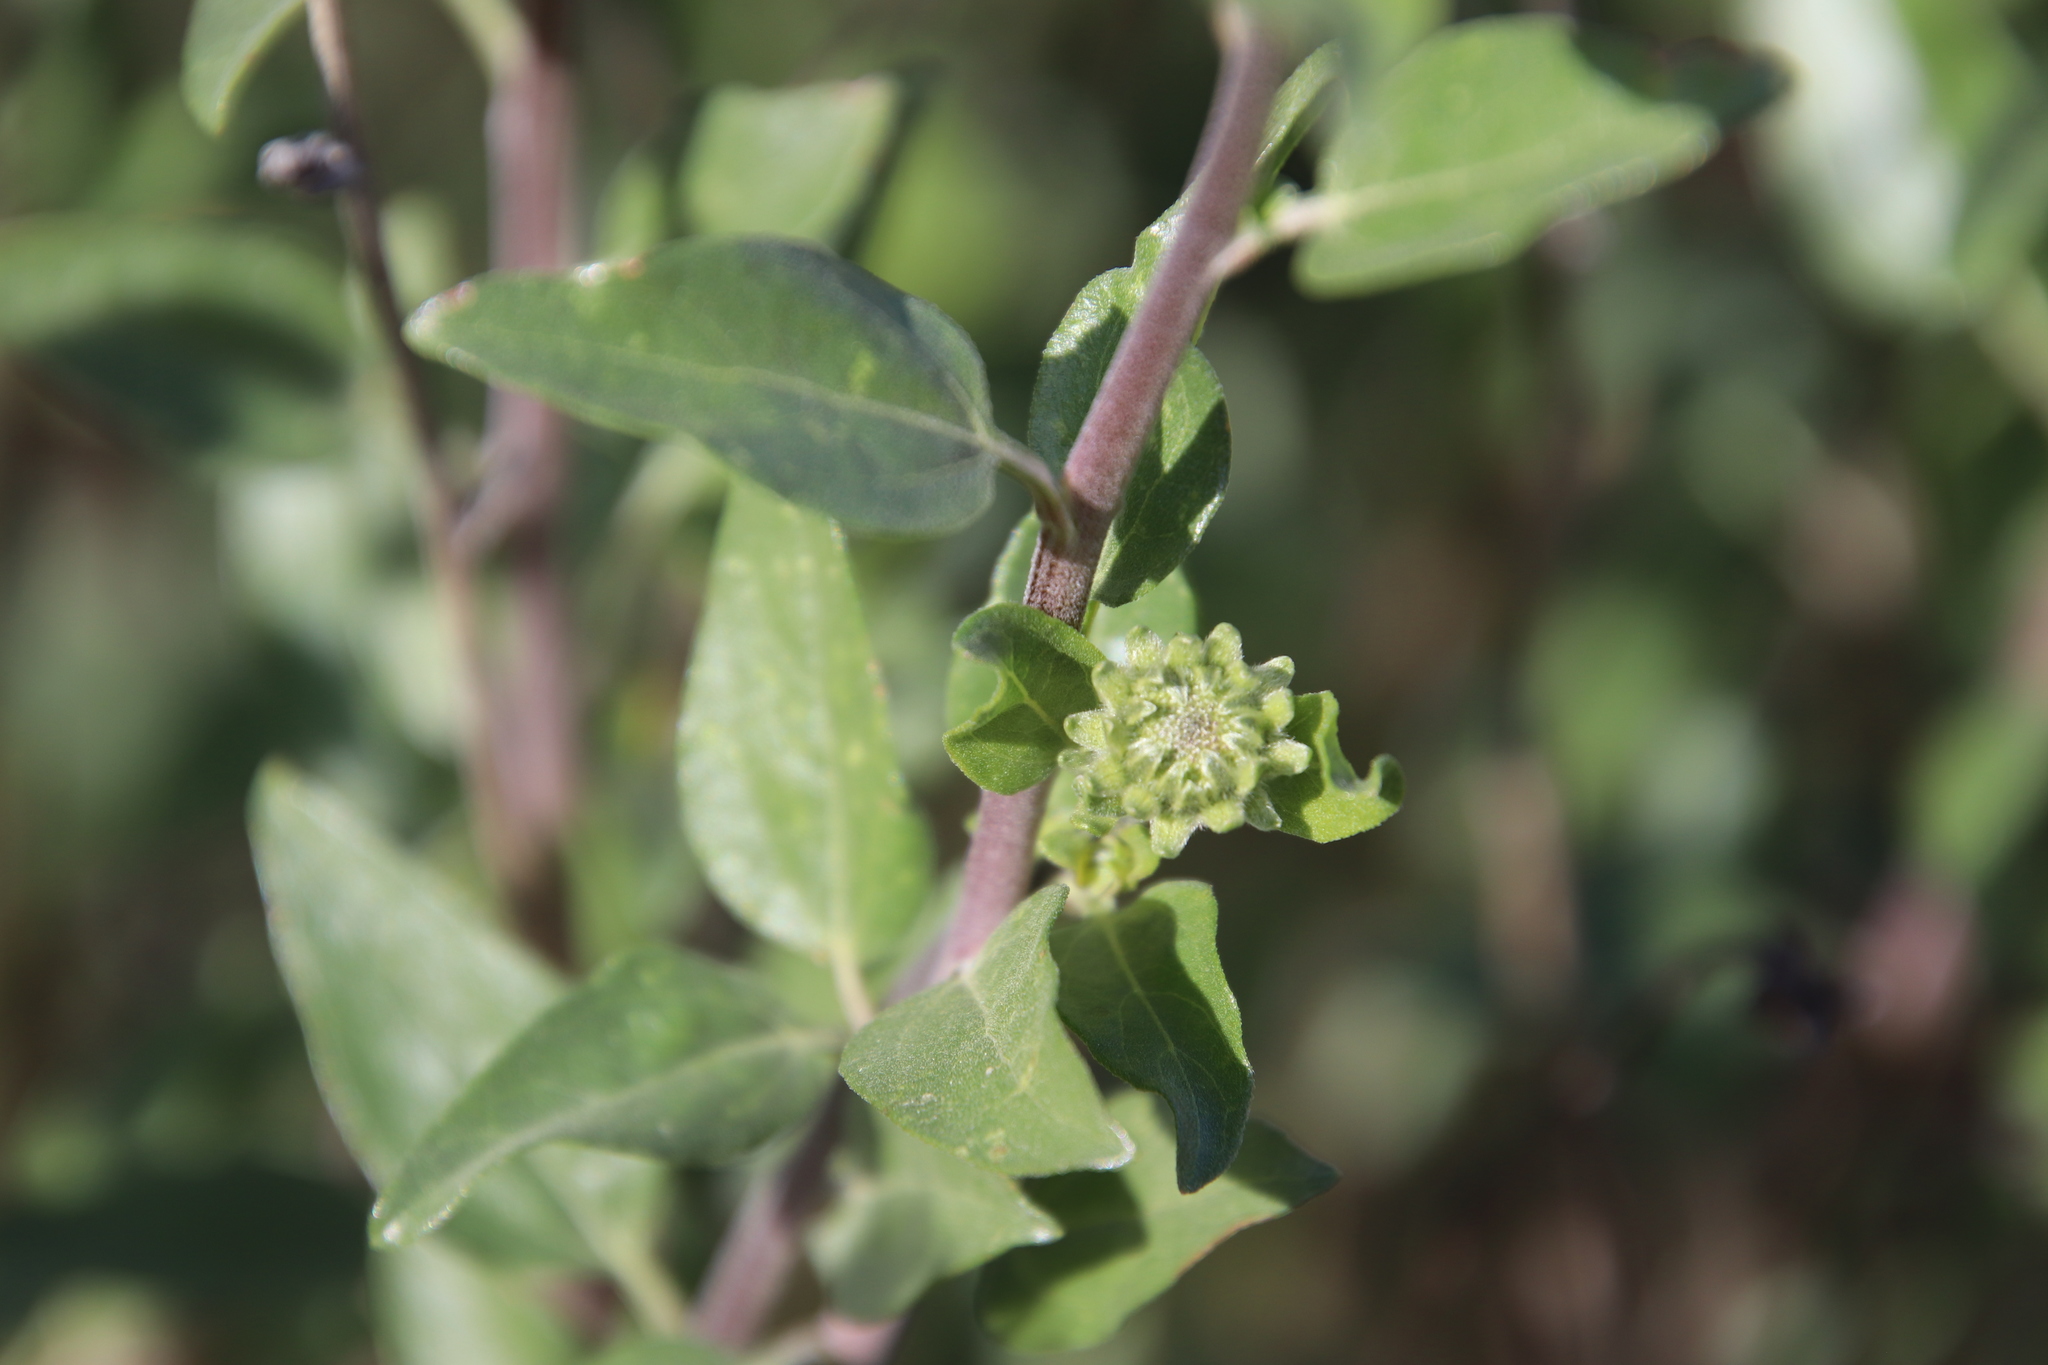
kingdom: Plantae
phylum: Tracheophyta
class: Magnoliopsida
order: Asterales
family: Asteraceae
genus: Encelia
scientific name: Encelia californica
